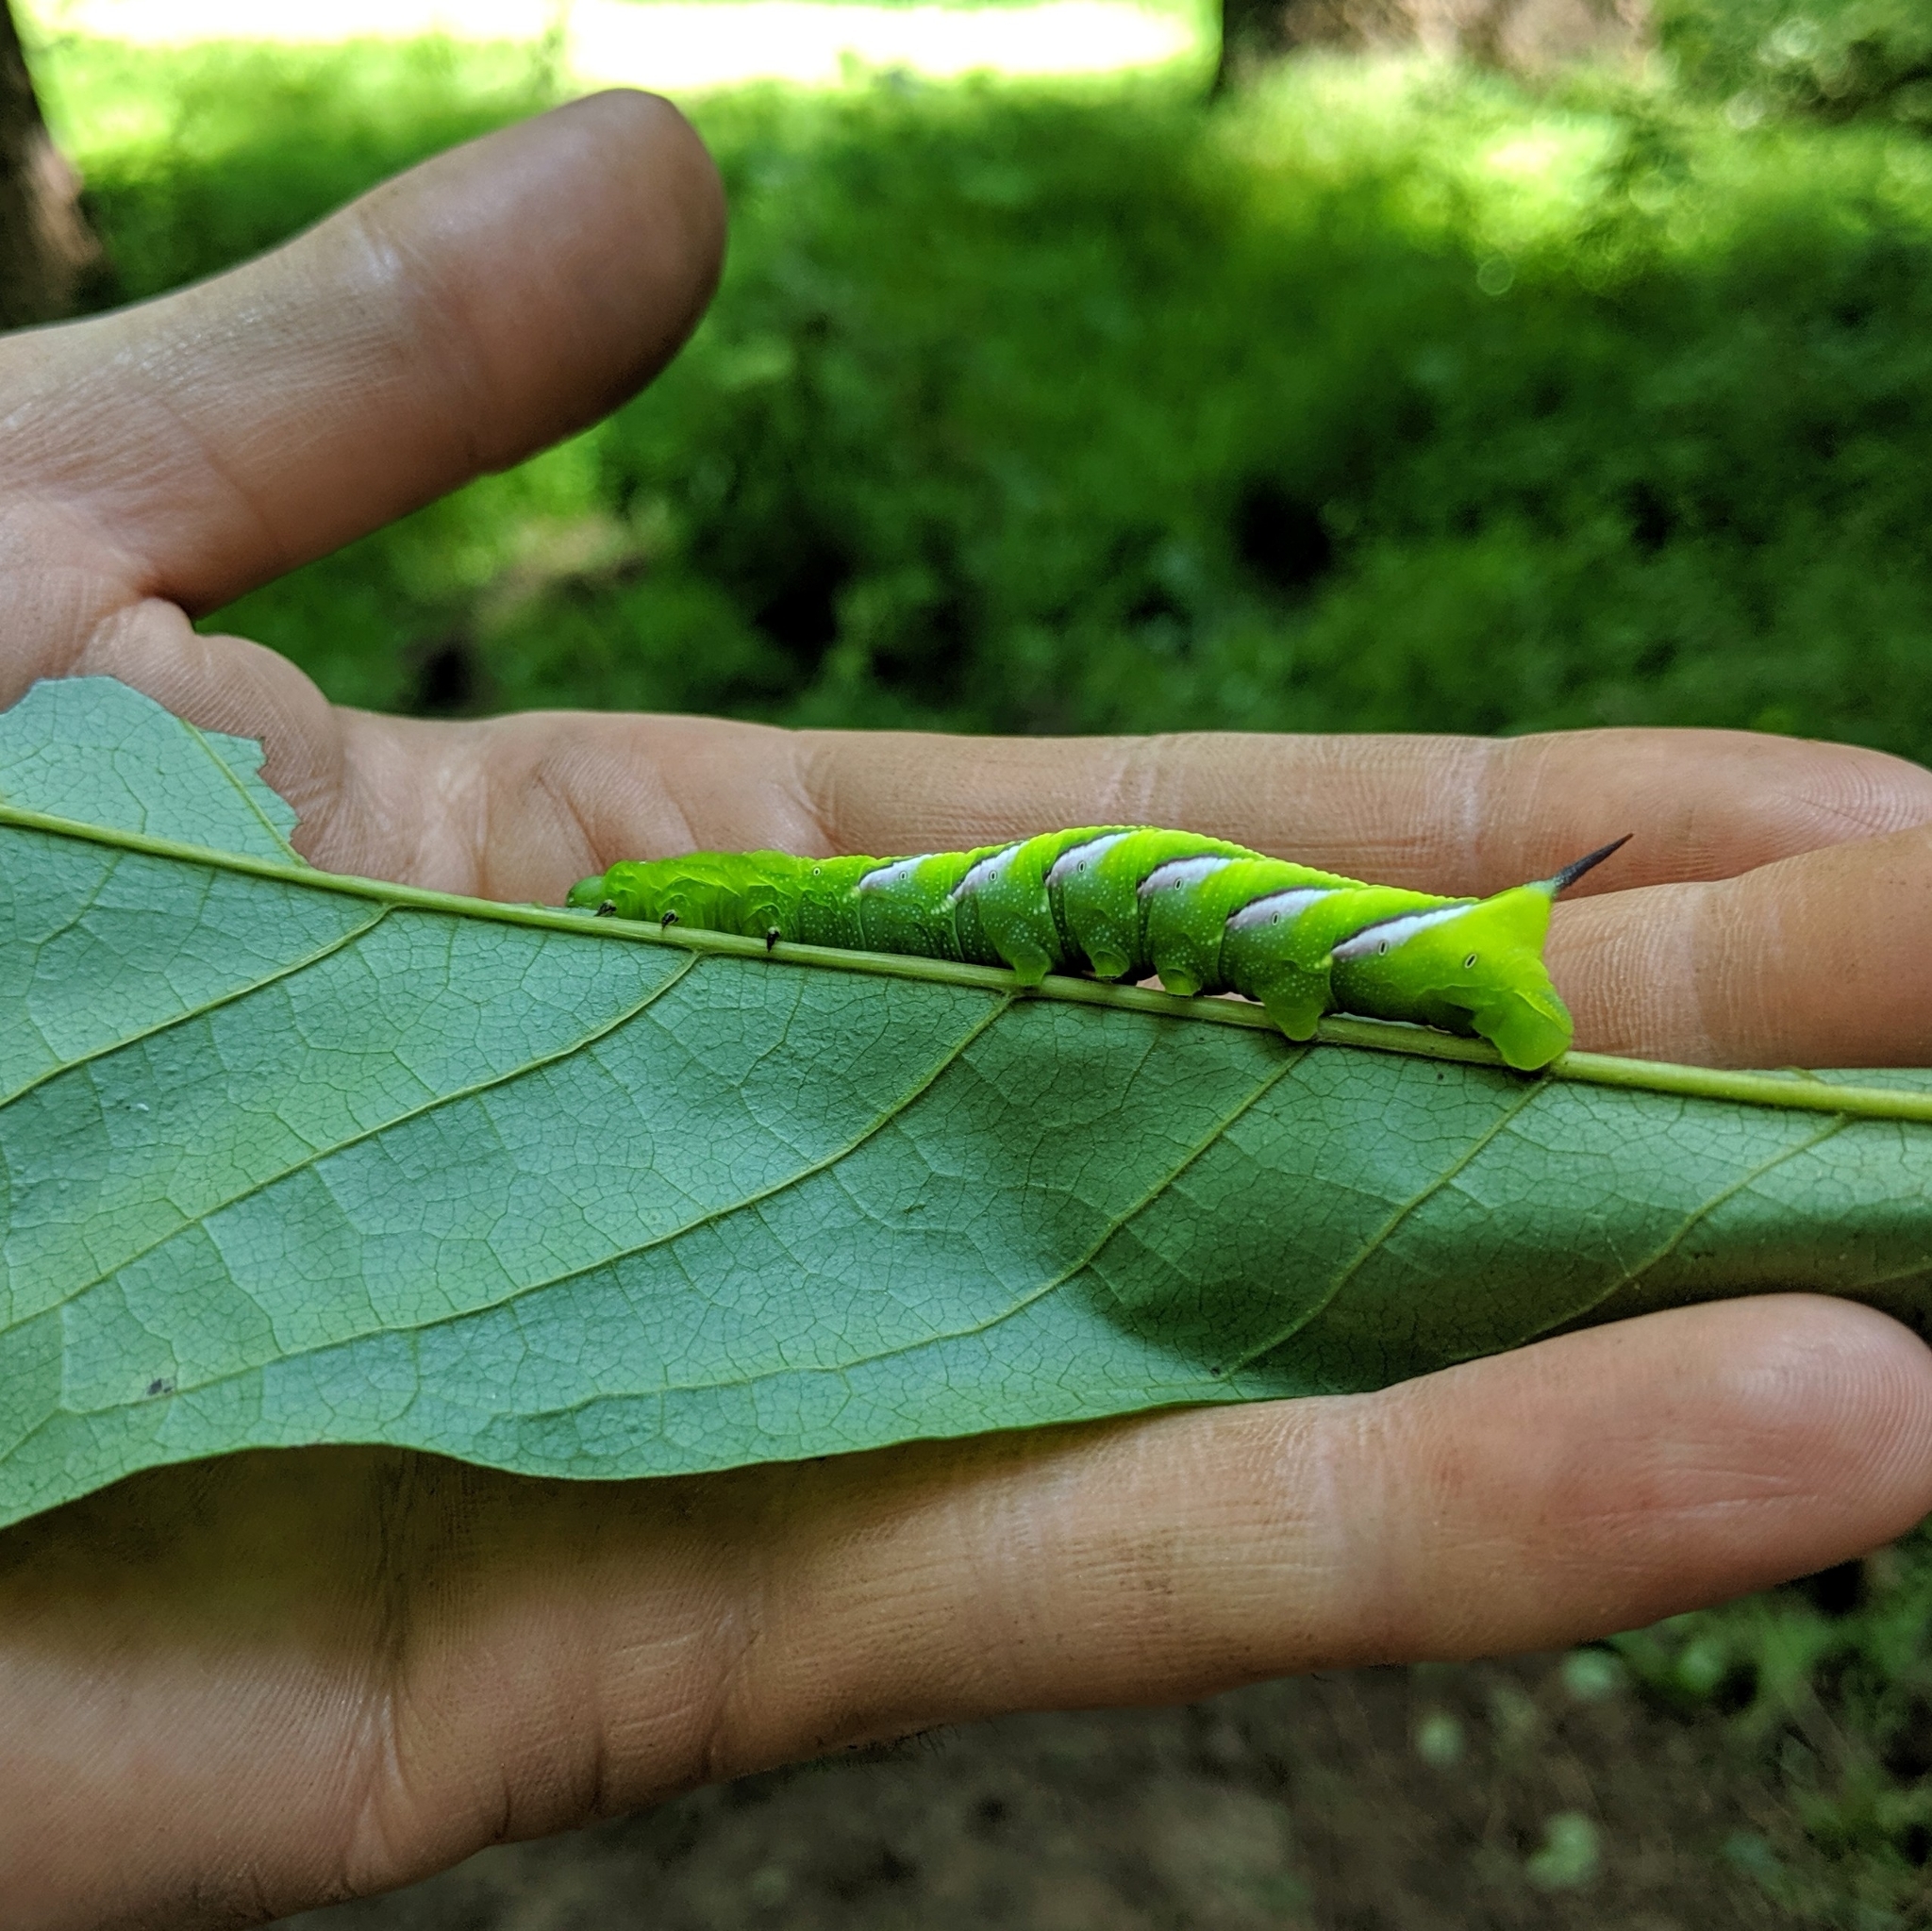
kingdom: Animalia
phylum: Arthropoda
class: Insecta
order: Lepidoptera
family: Sphingidae
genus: Dolba
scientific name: Dolba hyloeus
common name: Pawpaw sphinx
